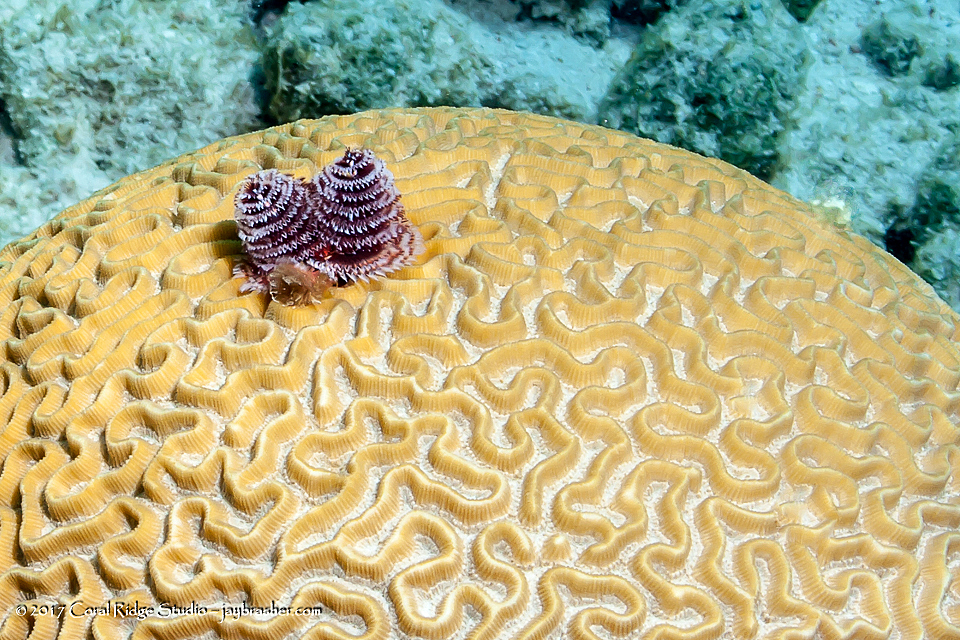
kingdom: Animalia
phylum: Cnidaria
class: Anthozoa
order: Scleractinia
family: Faviidae
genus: Colpophyllia
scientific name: Colpophyllia natans
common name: Boulder brain coral
